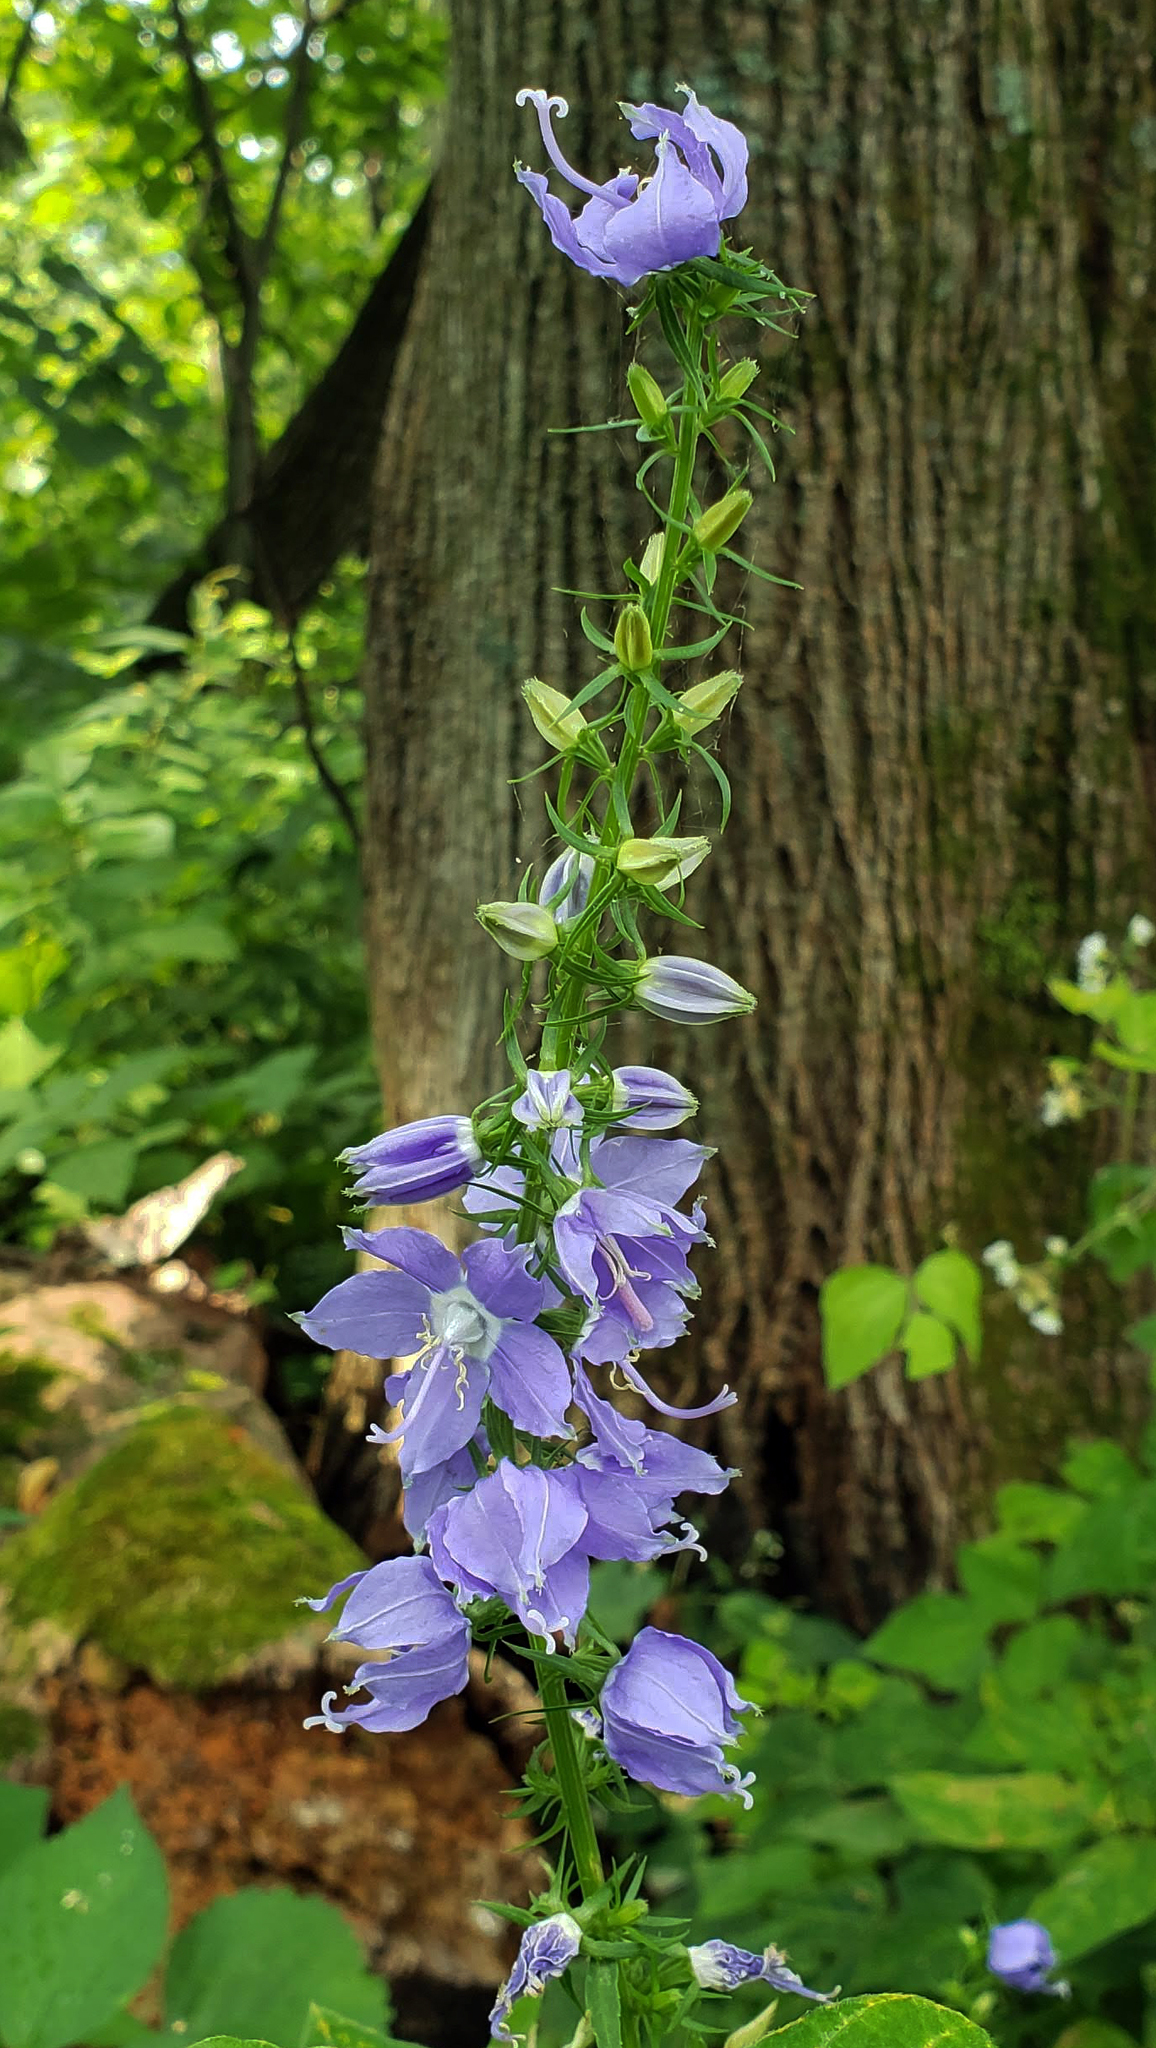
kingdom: Plantae
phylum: Tracheophyta
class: Magnoliopsida
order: Asterales
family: Campanulaceae
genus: Campanulastrum
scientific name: Campanulastrum americanum
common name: American bellflower
